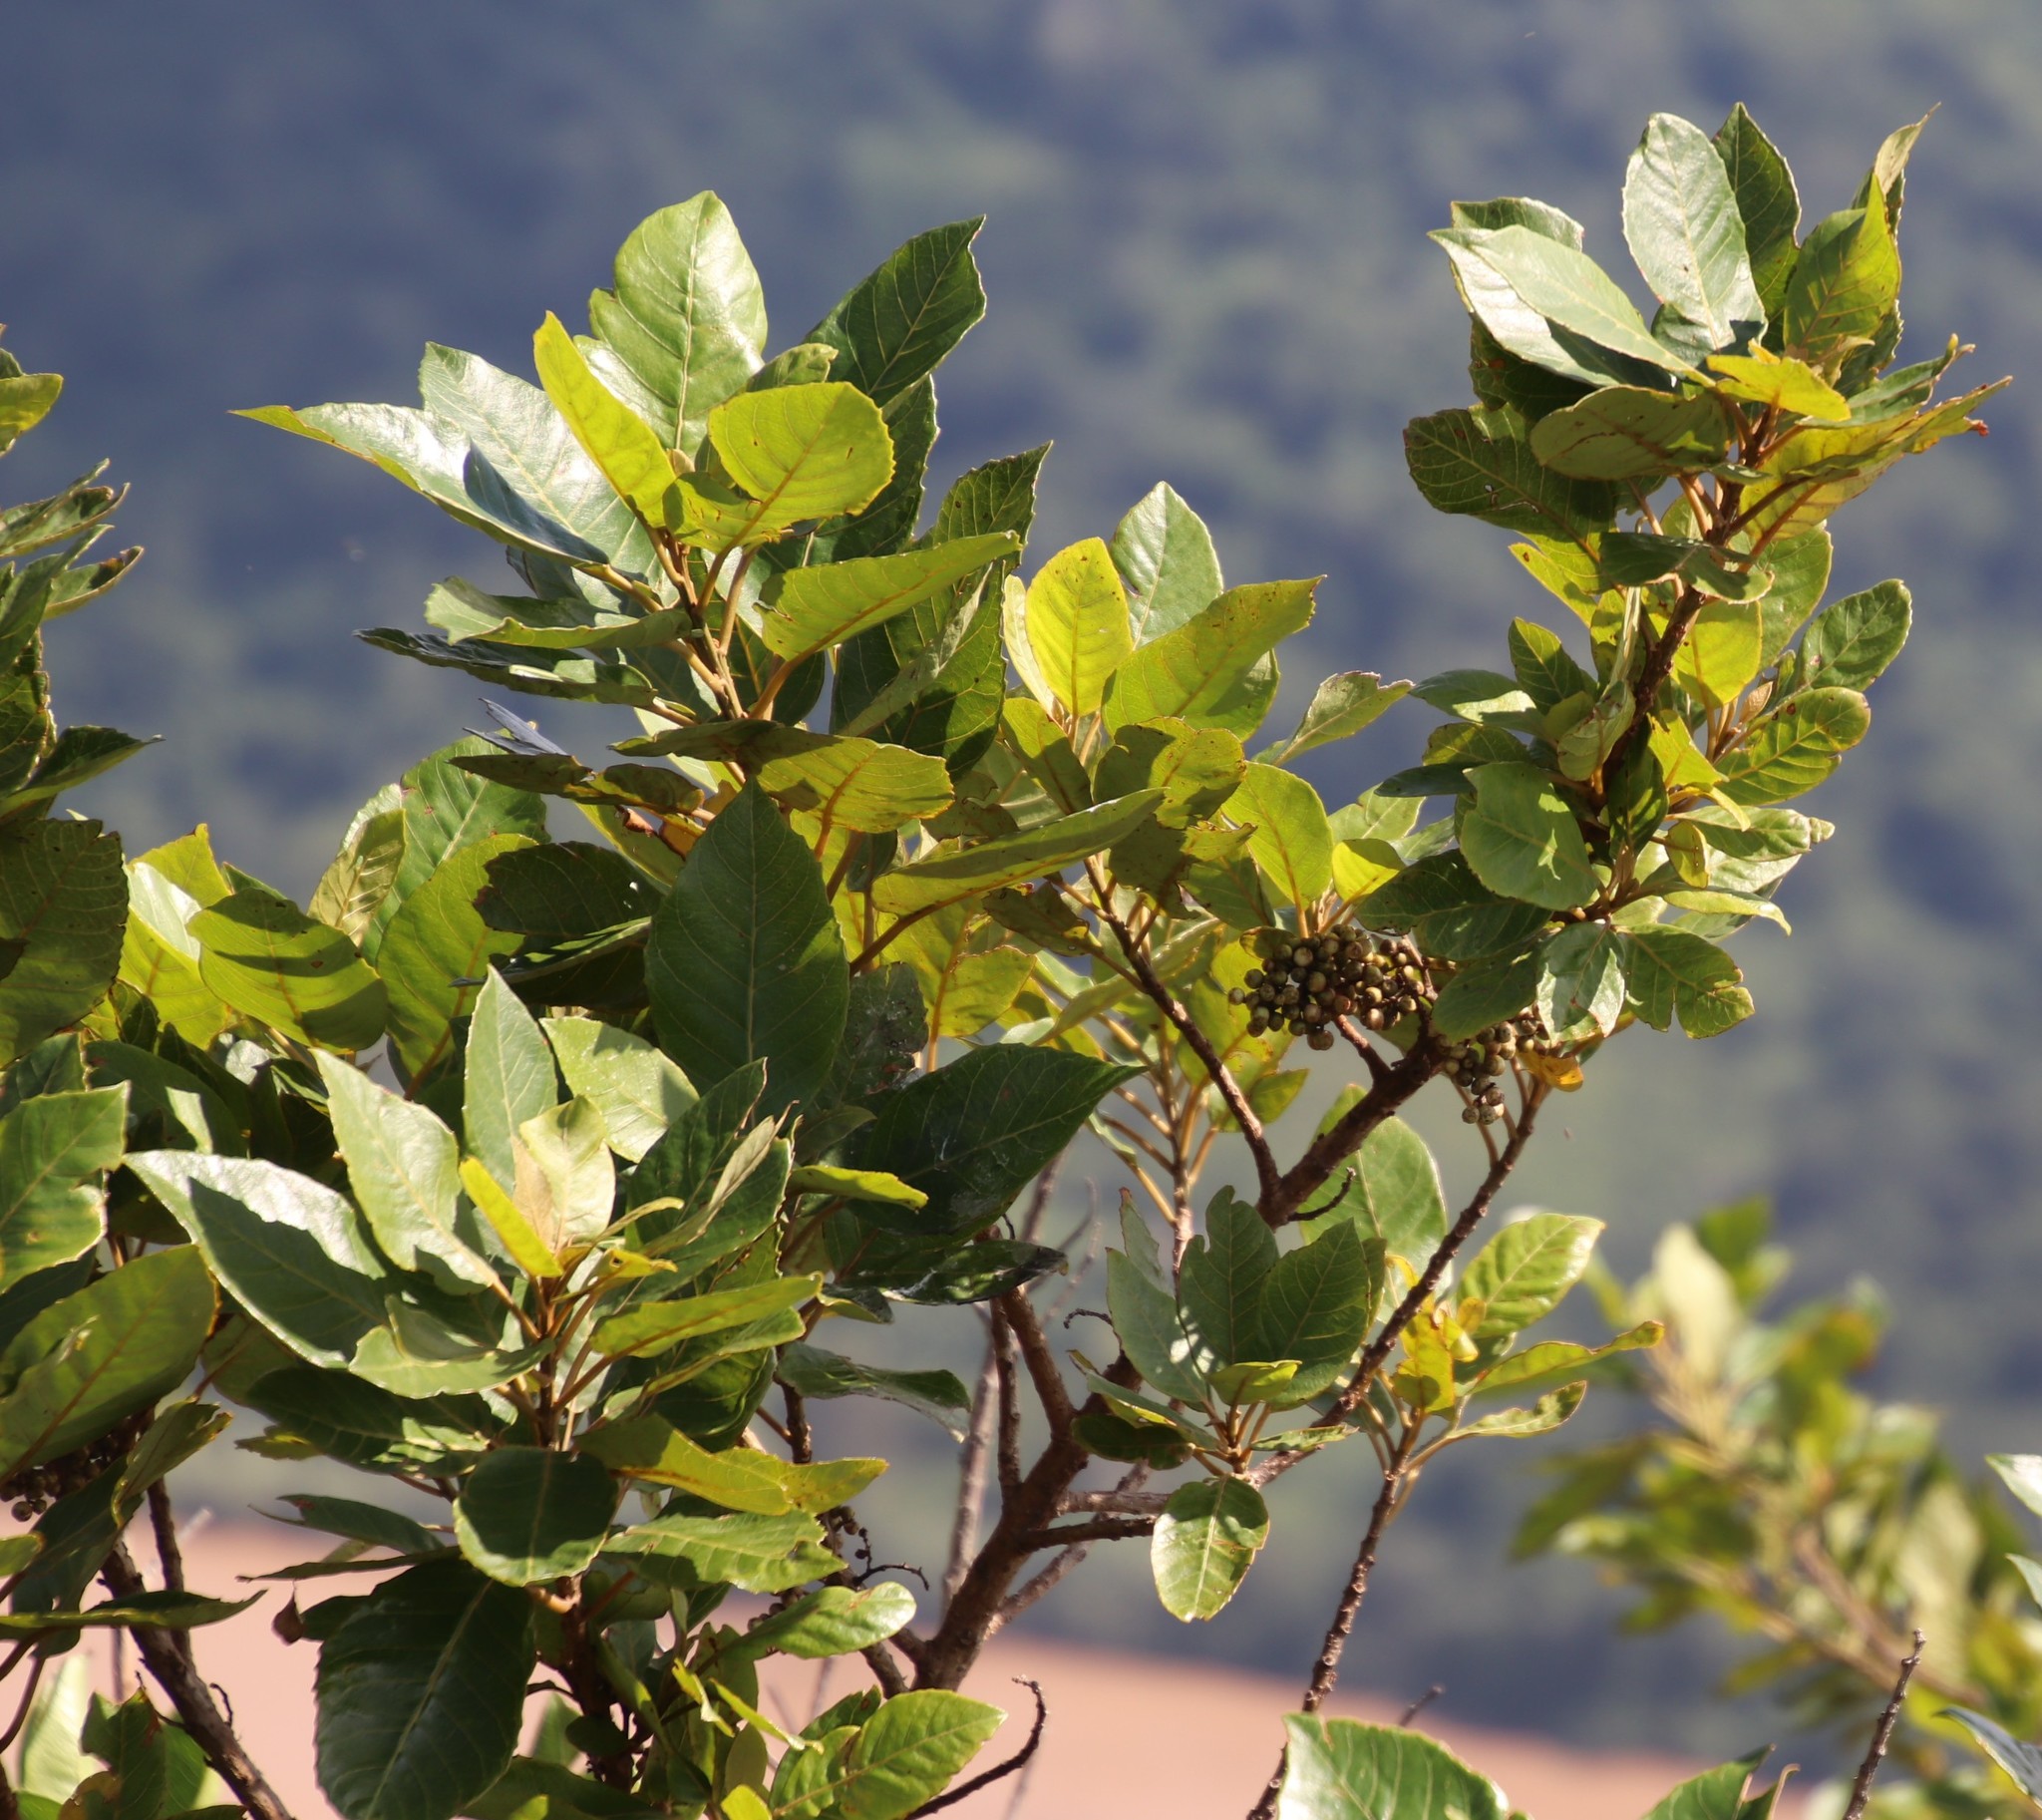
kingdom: Plantae
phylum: Tracheophyta
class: Magnoliopsida
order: Ericales
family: Primulaceae
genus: Maesa
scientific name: Maesa lanceolata
